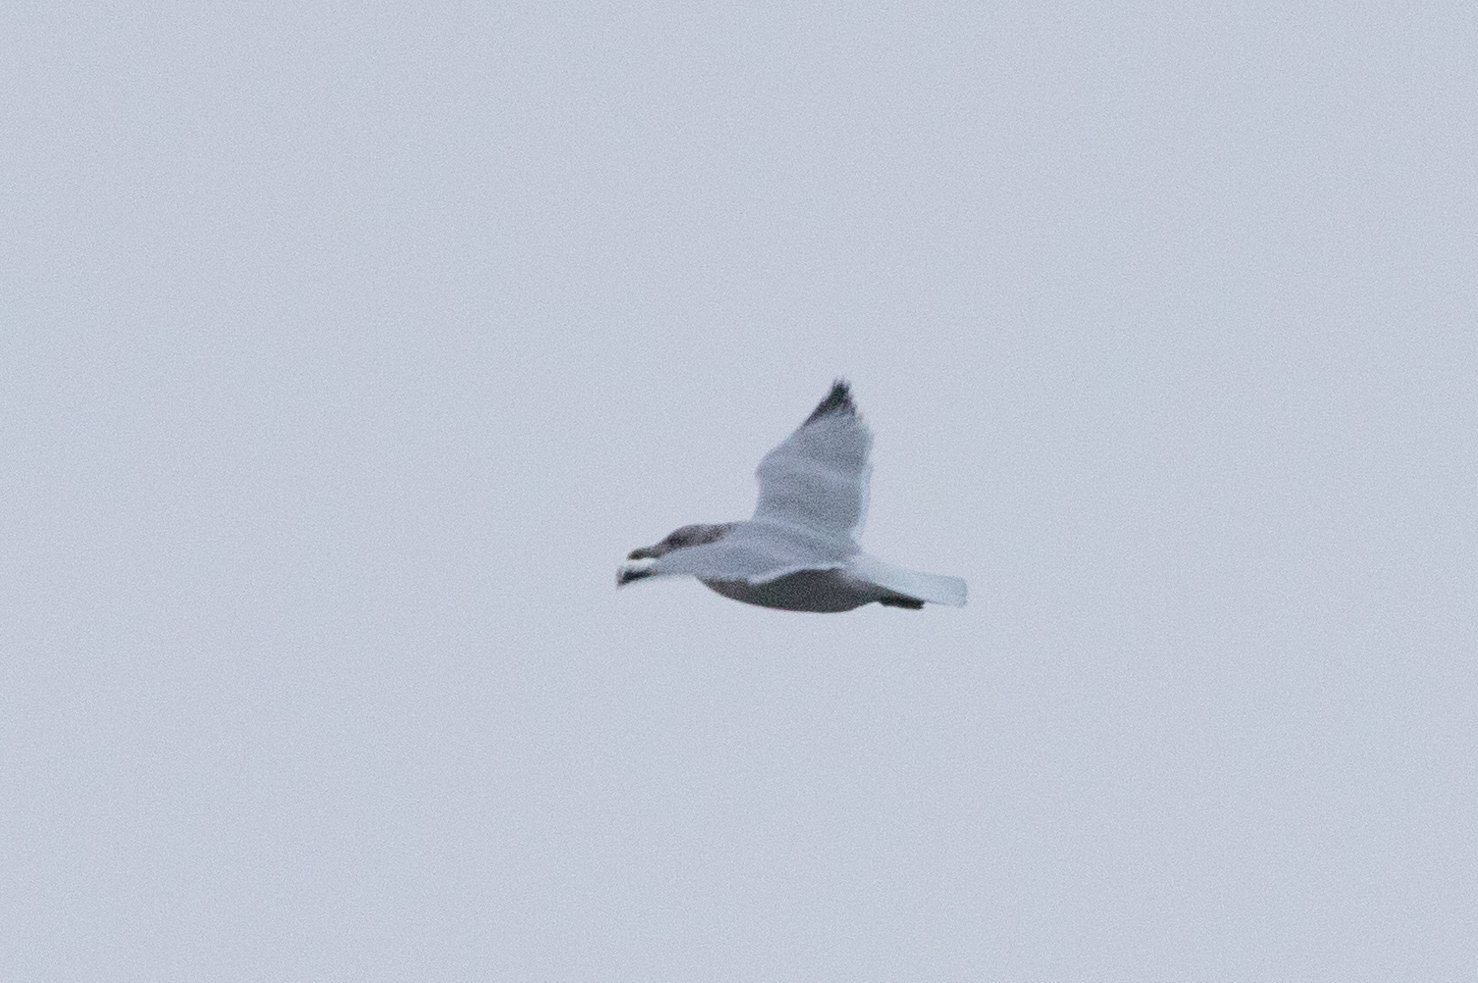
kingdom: Animalia
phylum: Chordata
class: Aves
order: Charadriiformes
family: Laridae
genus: Larus
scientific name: Larus argentatus
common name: Herring gull
